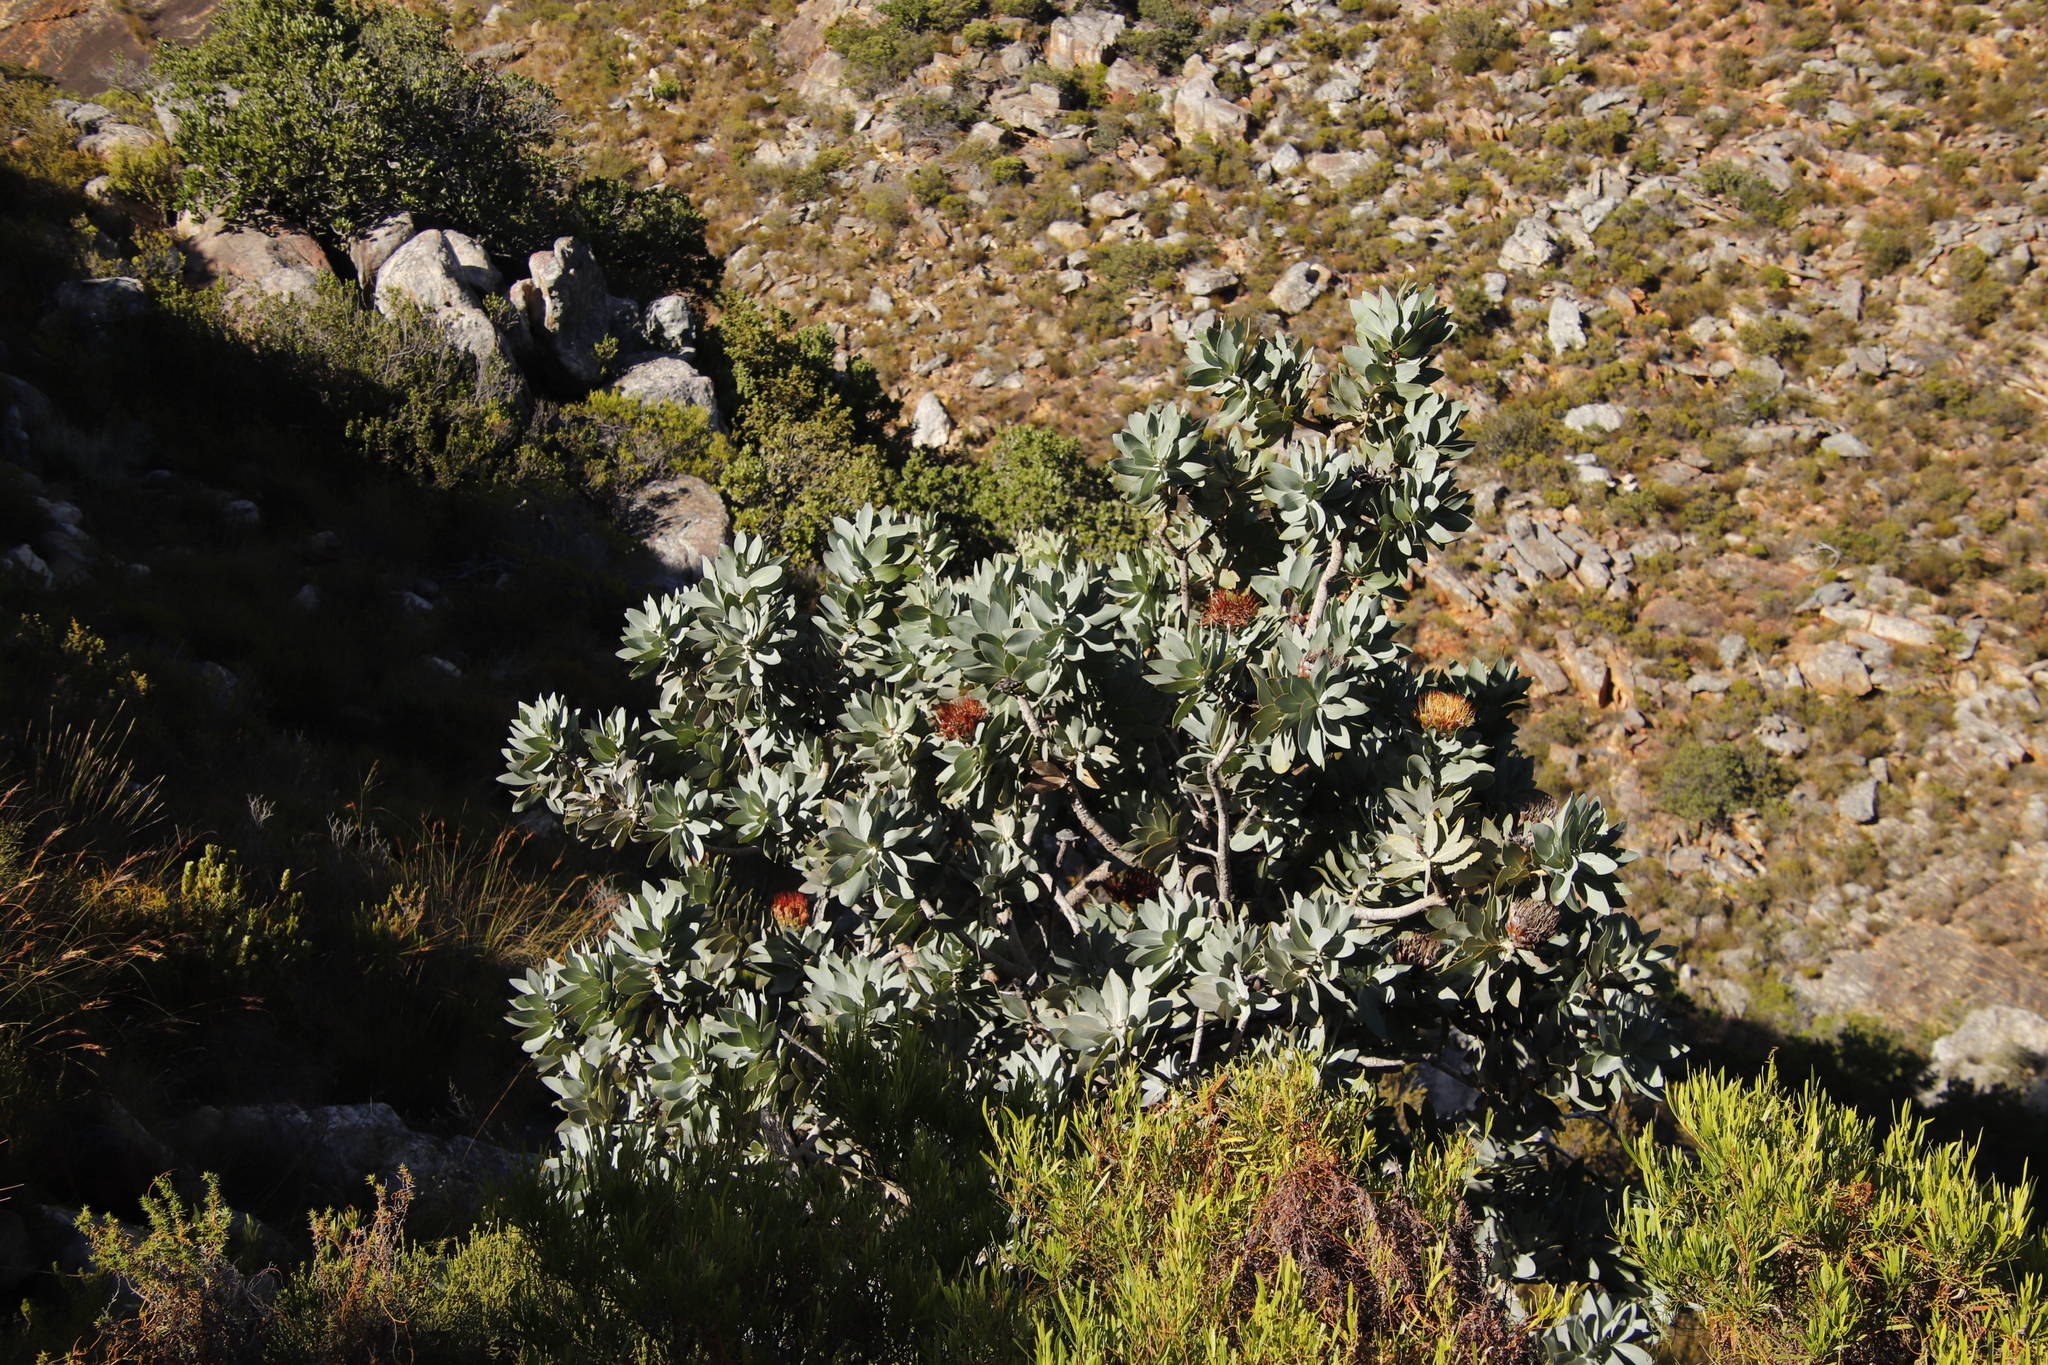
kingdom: Plantae
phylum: Tracheophyta
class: Magnoliopsida
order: Proteales
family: Proteaceae
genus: Protea
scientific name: Protea nitida
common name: Tree protea
